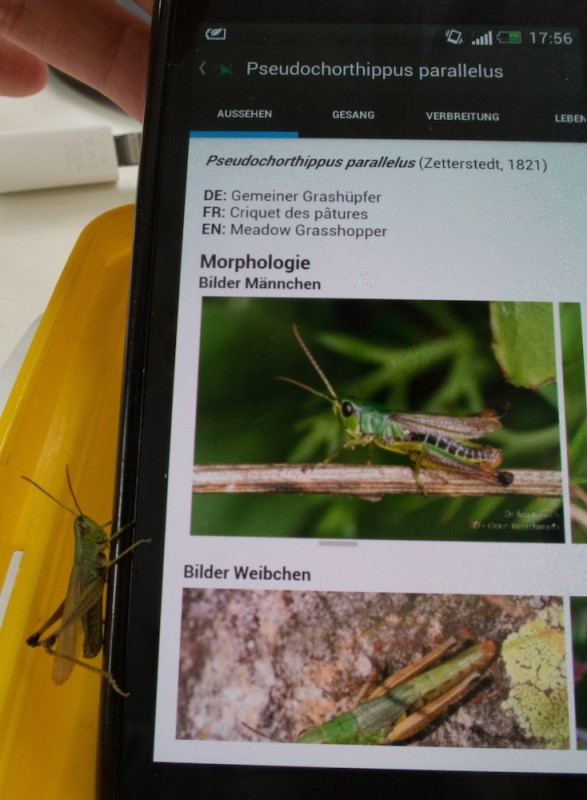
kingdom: Animalia
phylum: Arthropoda
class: Insecta
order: Orthoptera
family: Acrididae
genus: Pseudochorthippus
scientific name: Pseudochorthippus parallelus
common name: Meadow grasshopper
